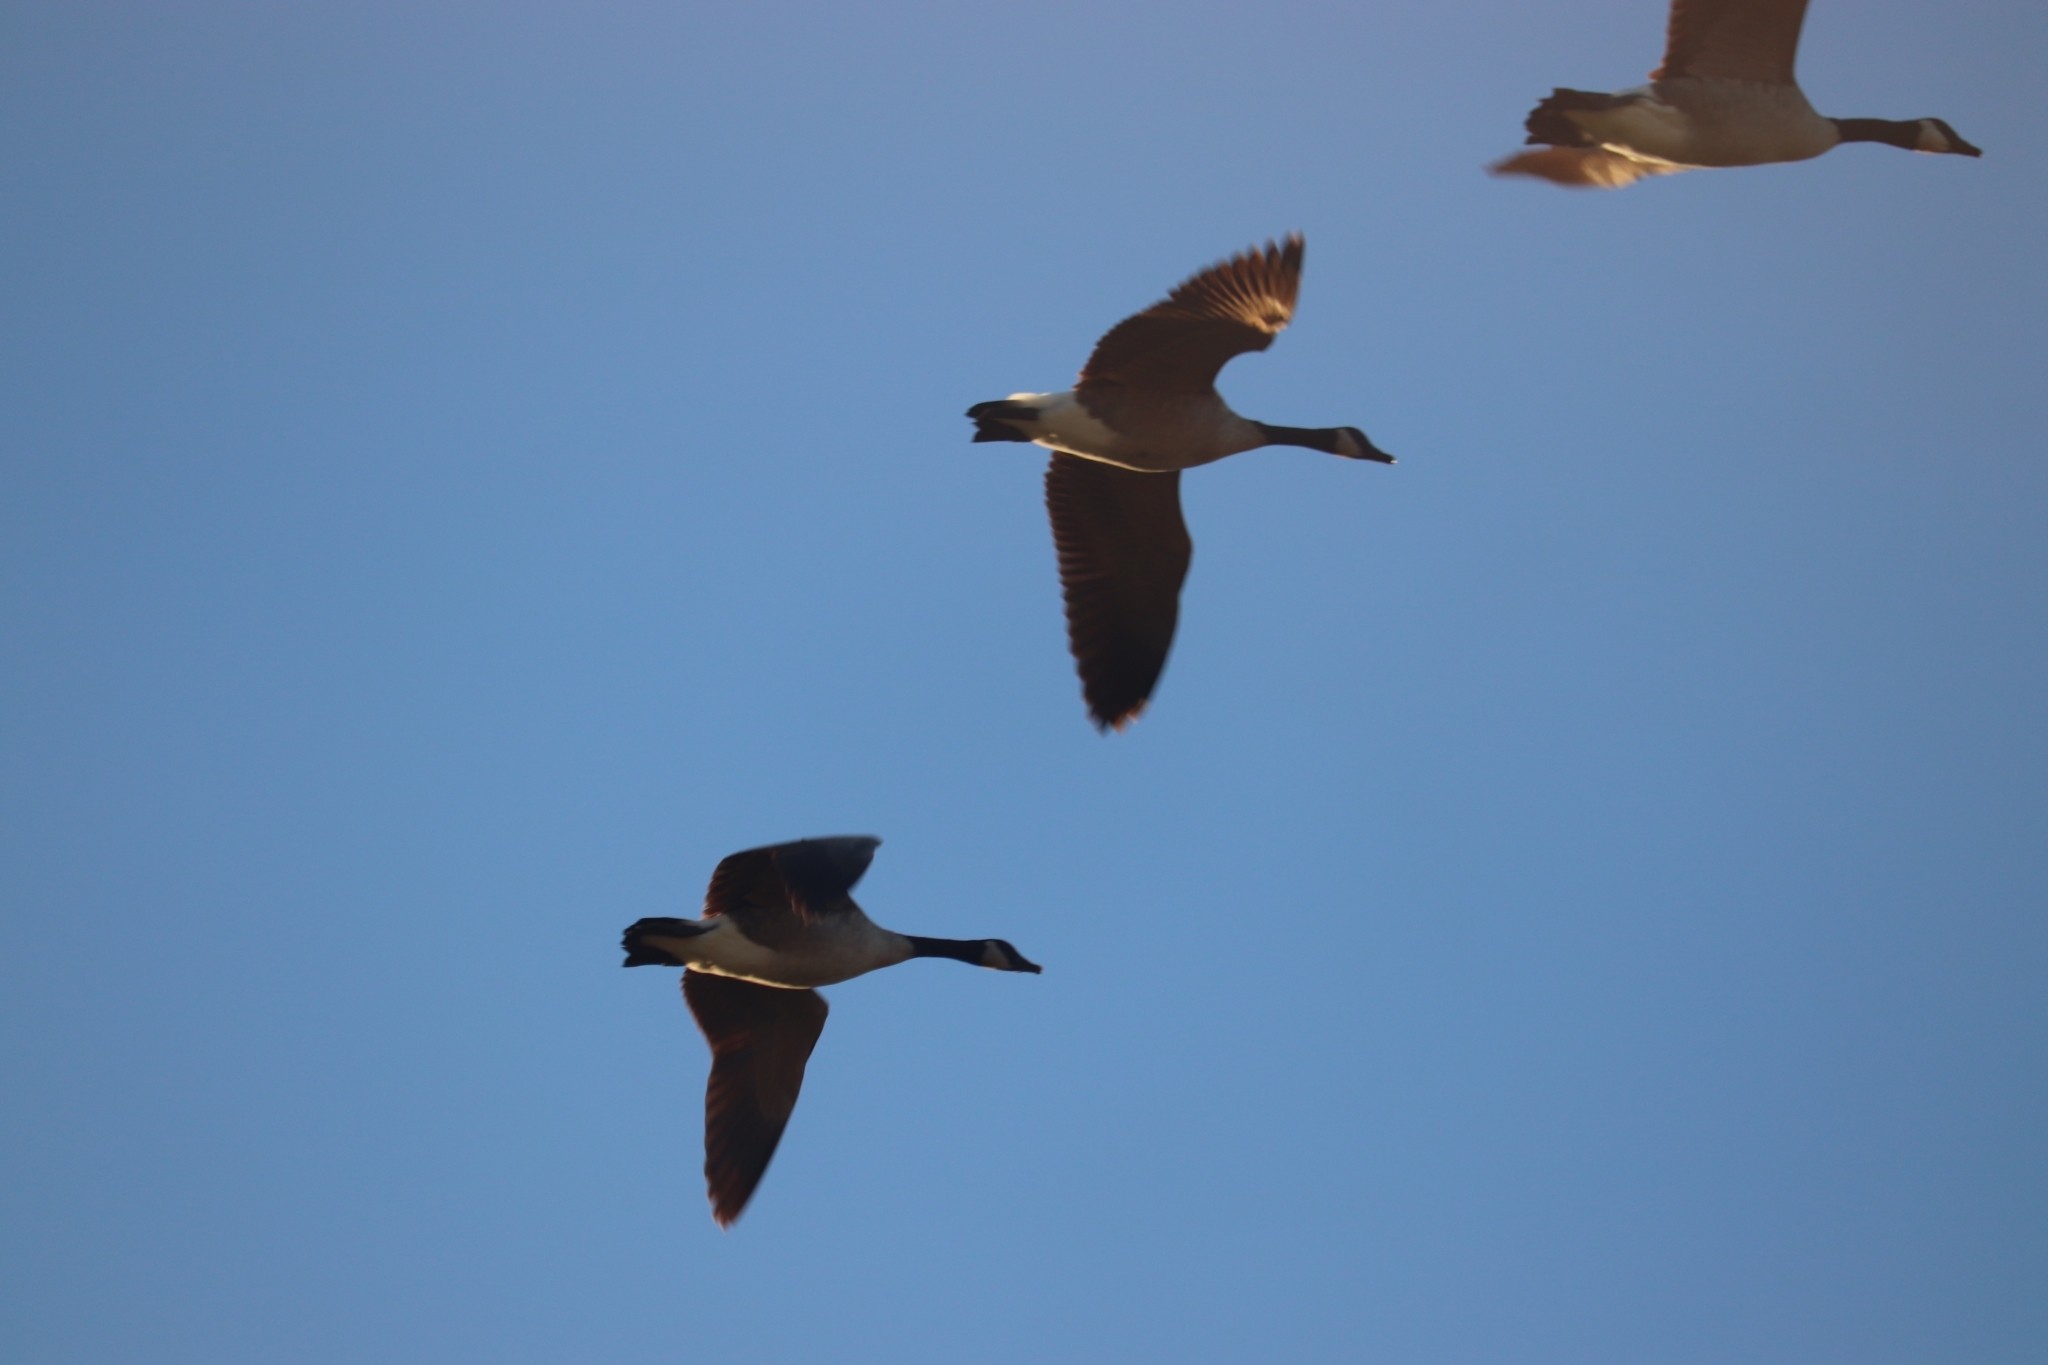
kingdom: Animalia
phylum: Chordata
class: Aves
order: Anseriformes
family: Anatidae
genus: Branta
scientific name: Branta canadensis
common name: Canada goose
